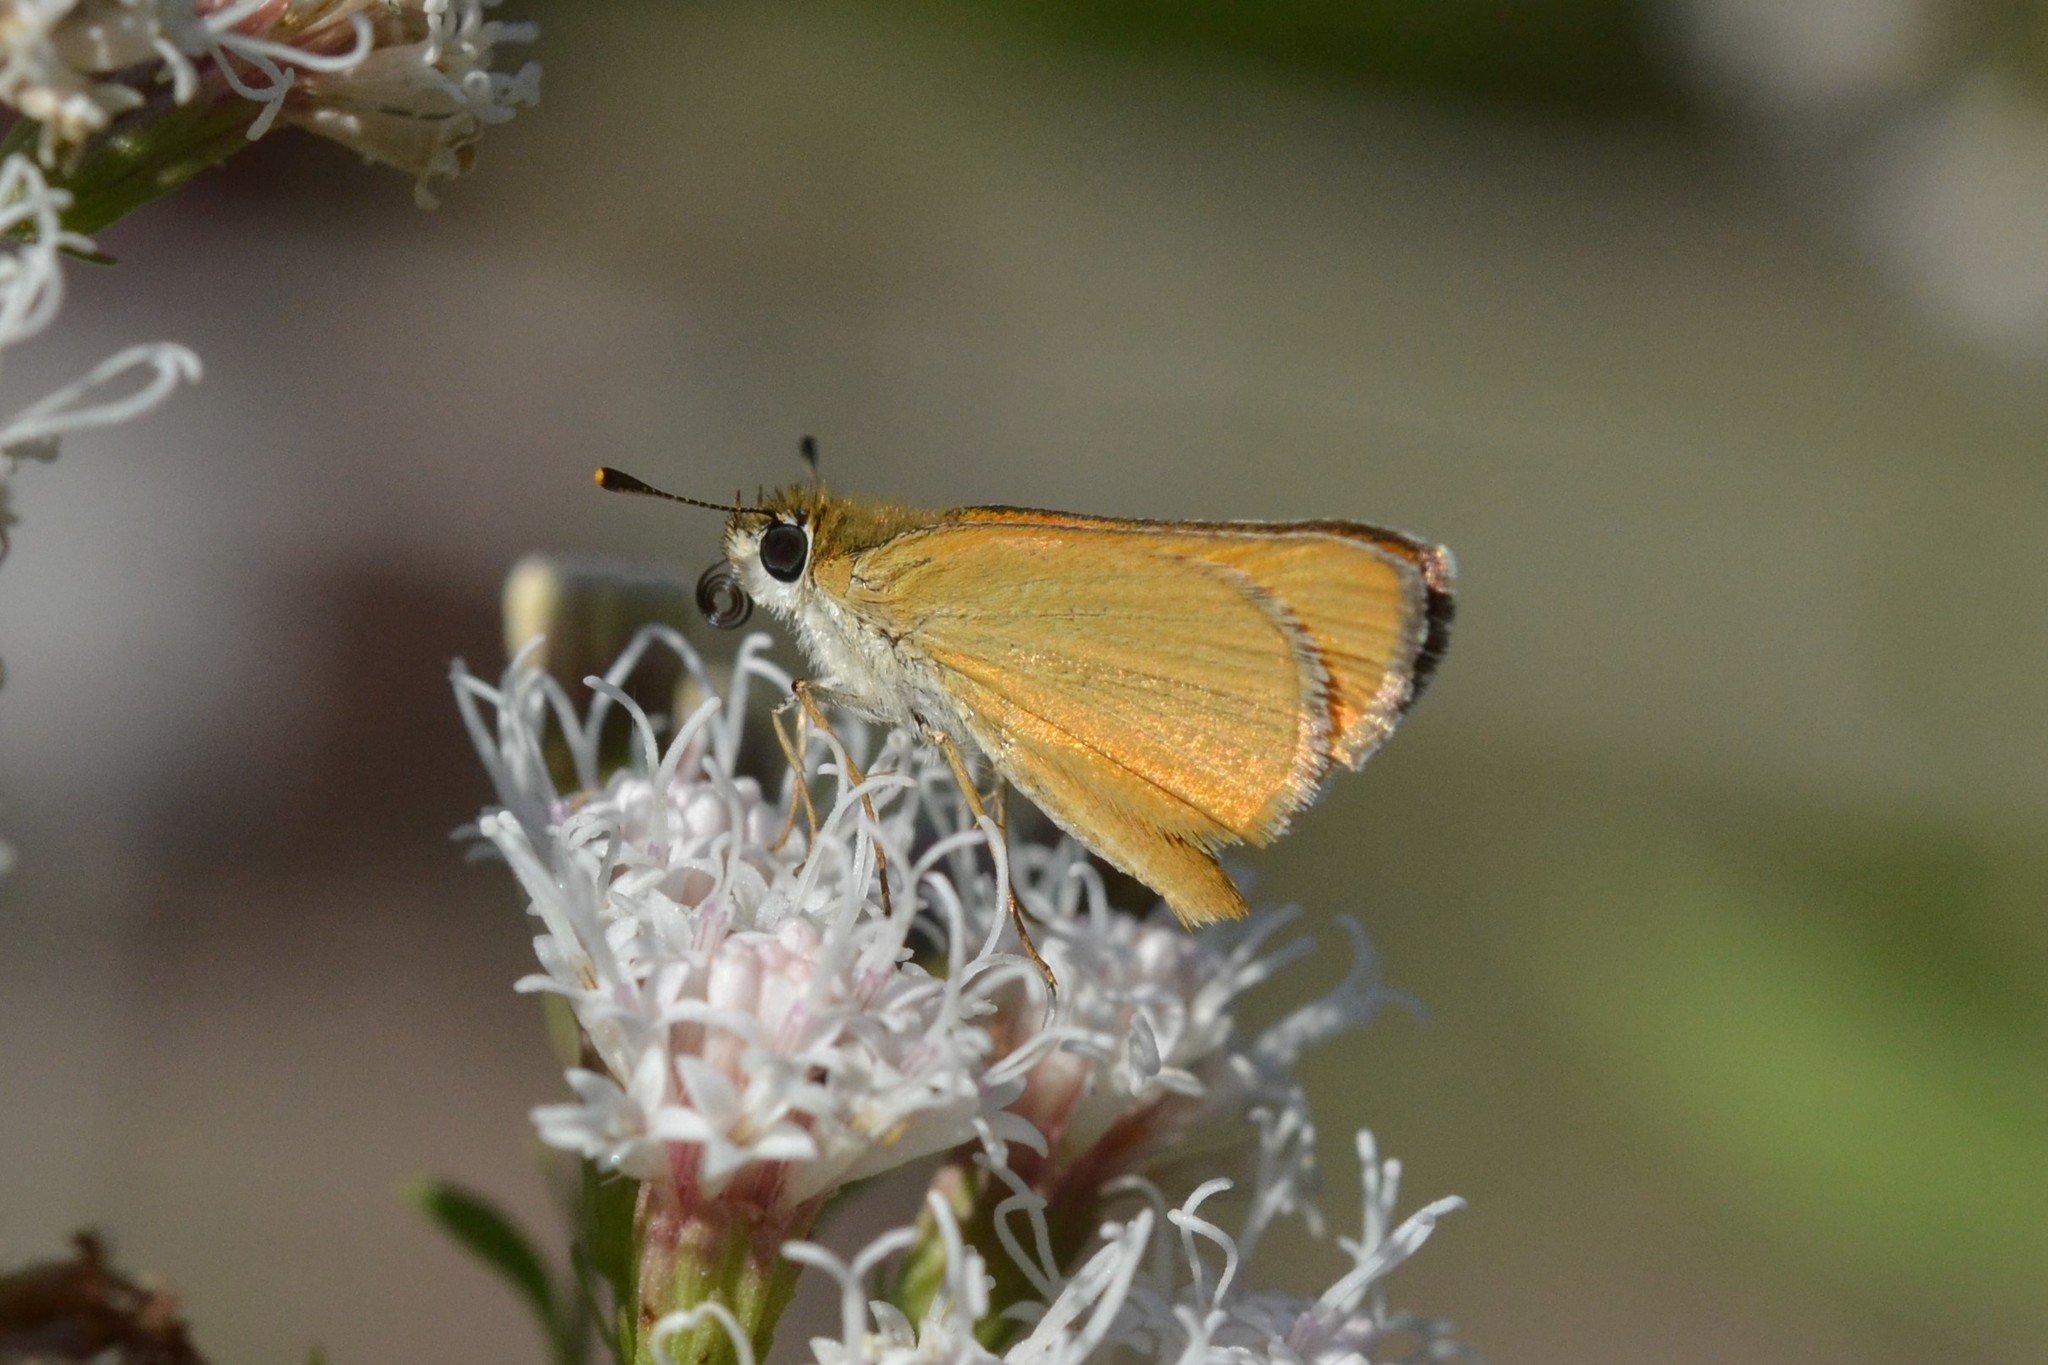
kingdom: Animalia
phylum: Arthropoda
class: Insecta
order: Lepidoptera
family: Hesperiidae
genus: Copaeodes
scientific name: Copaeodes aurantiaca
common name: Orange skipperling
